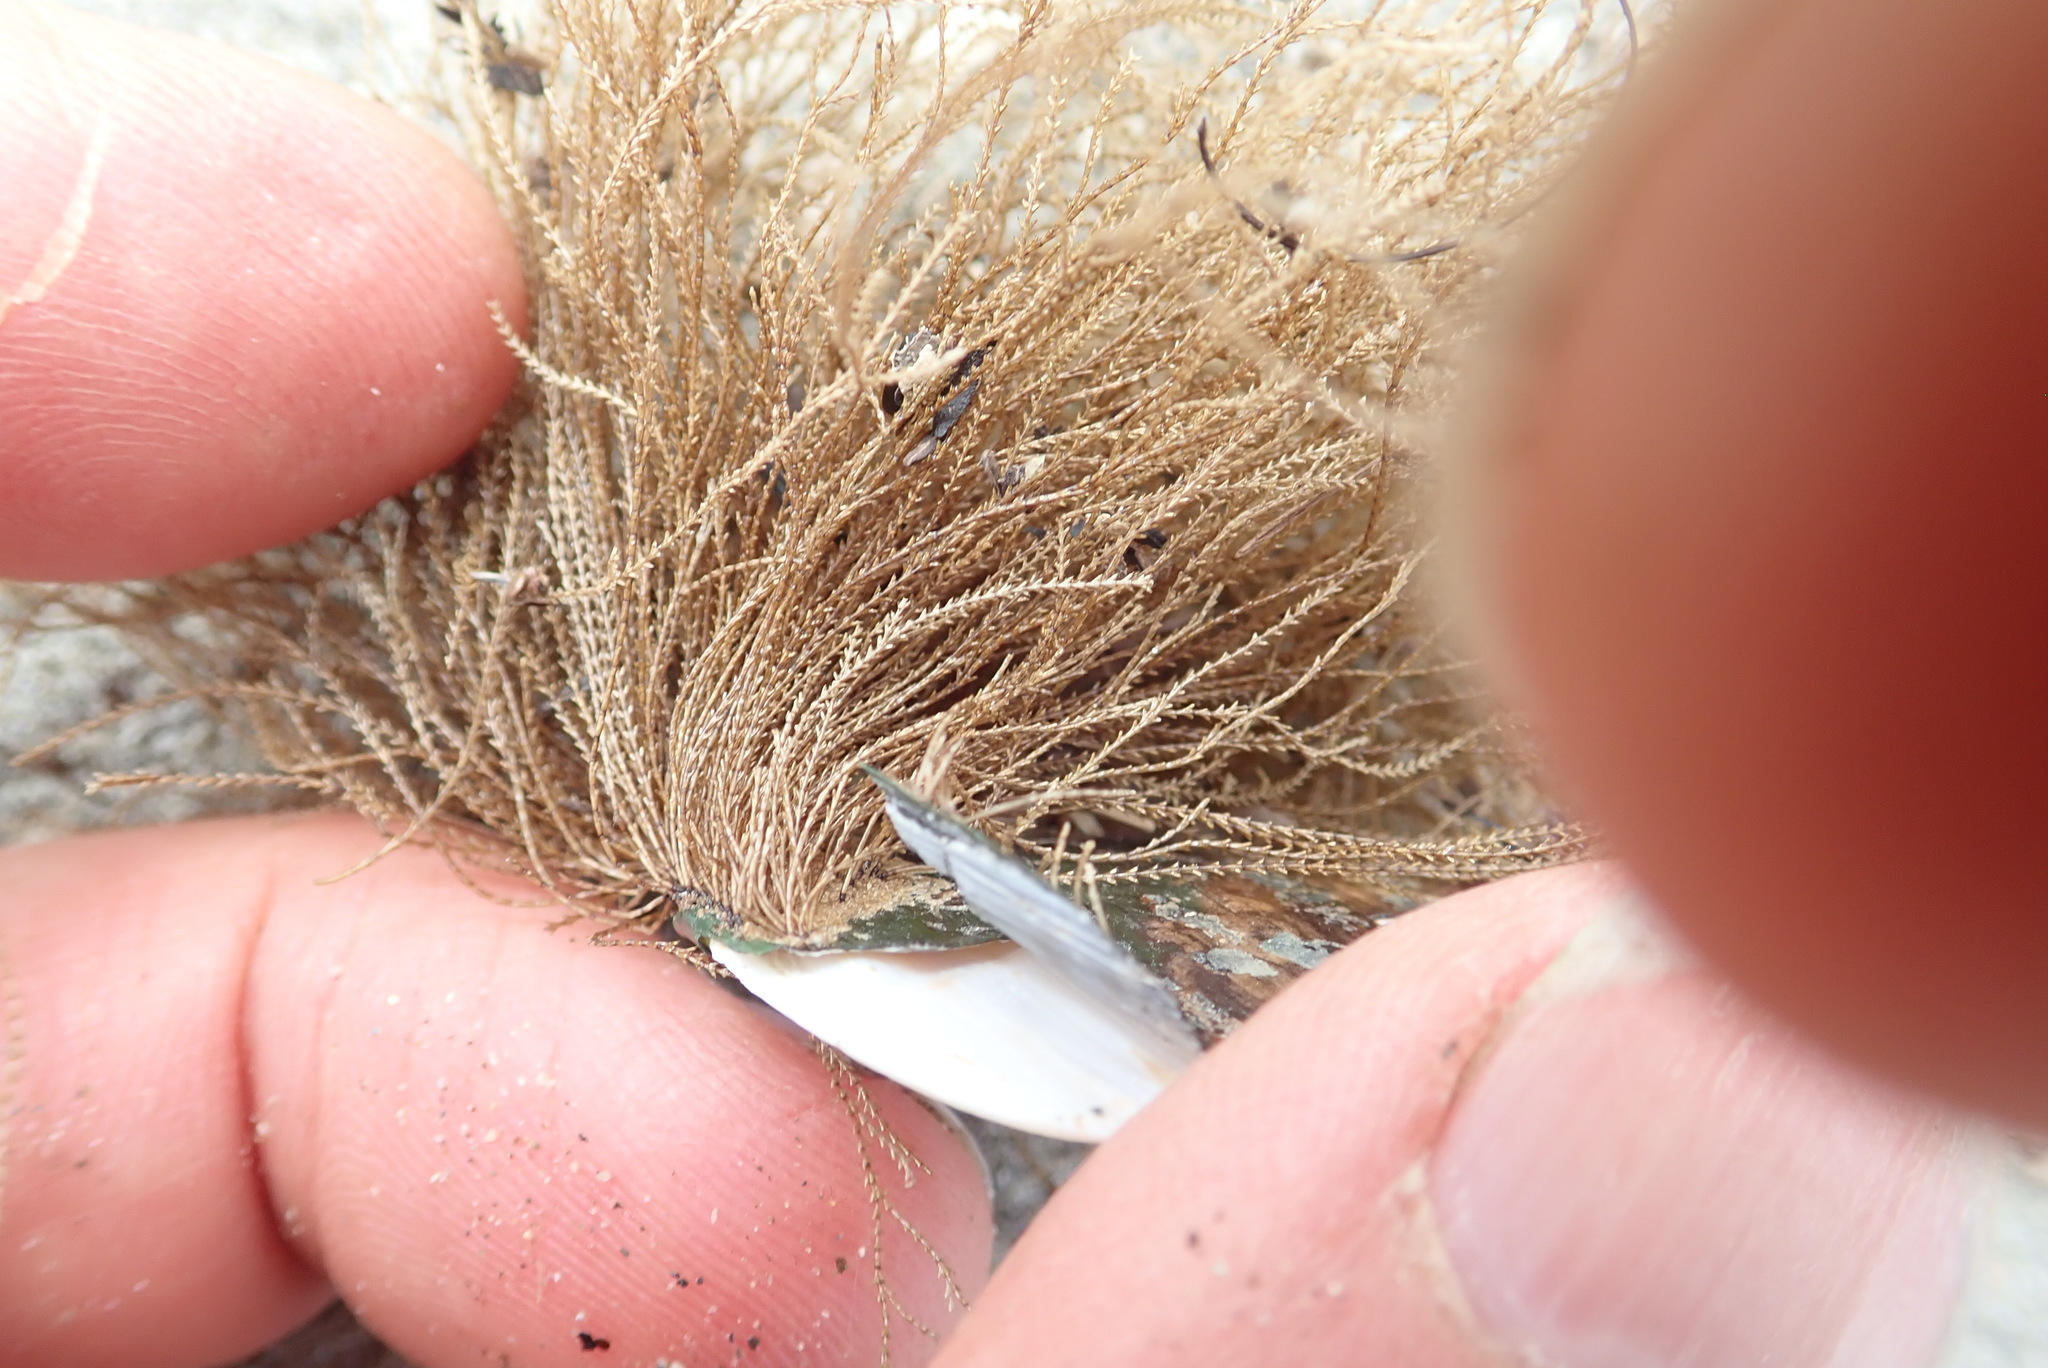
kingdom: Animalia
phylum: Cnidaria
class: Hydrozoa
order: Leptothecata
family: Sertulariidae
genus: Amphisbetia
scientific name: Amphisbetia bispinosa
